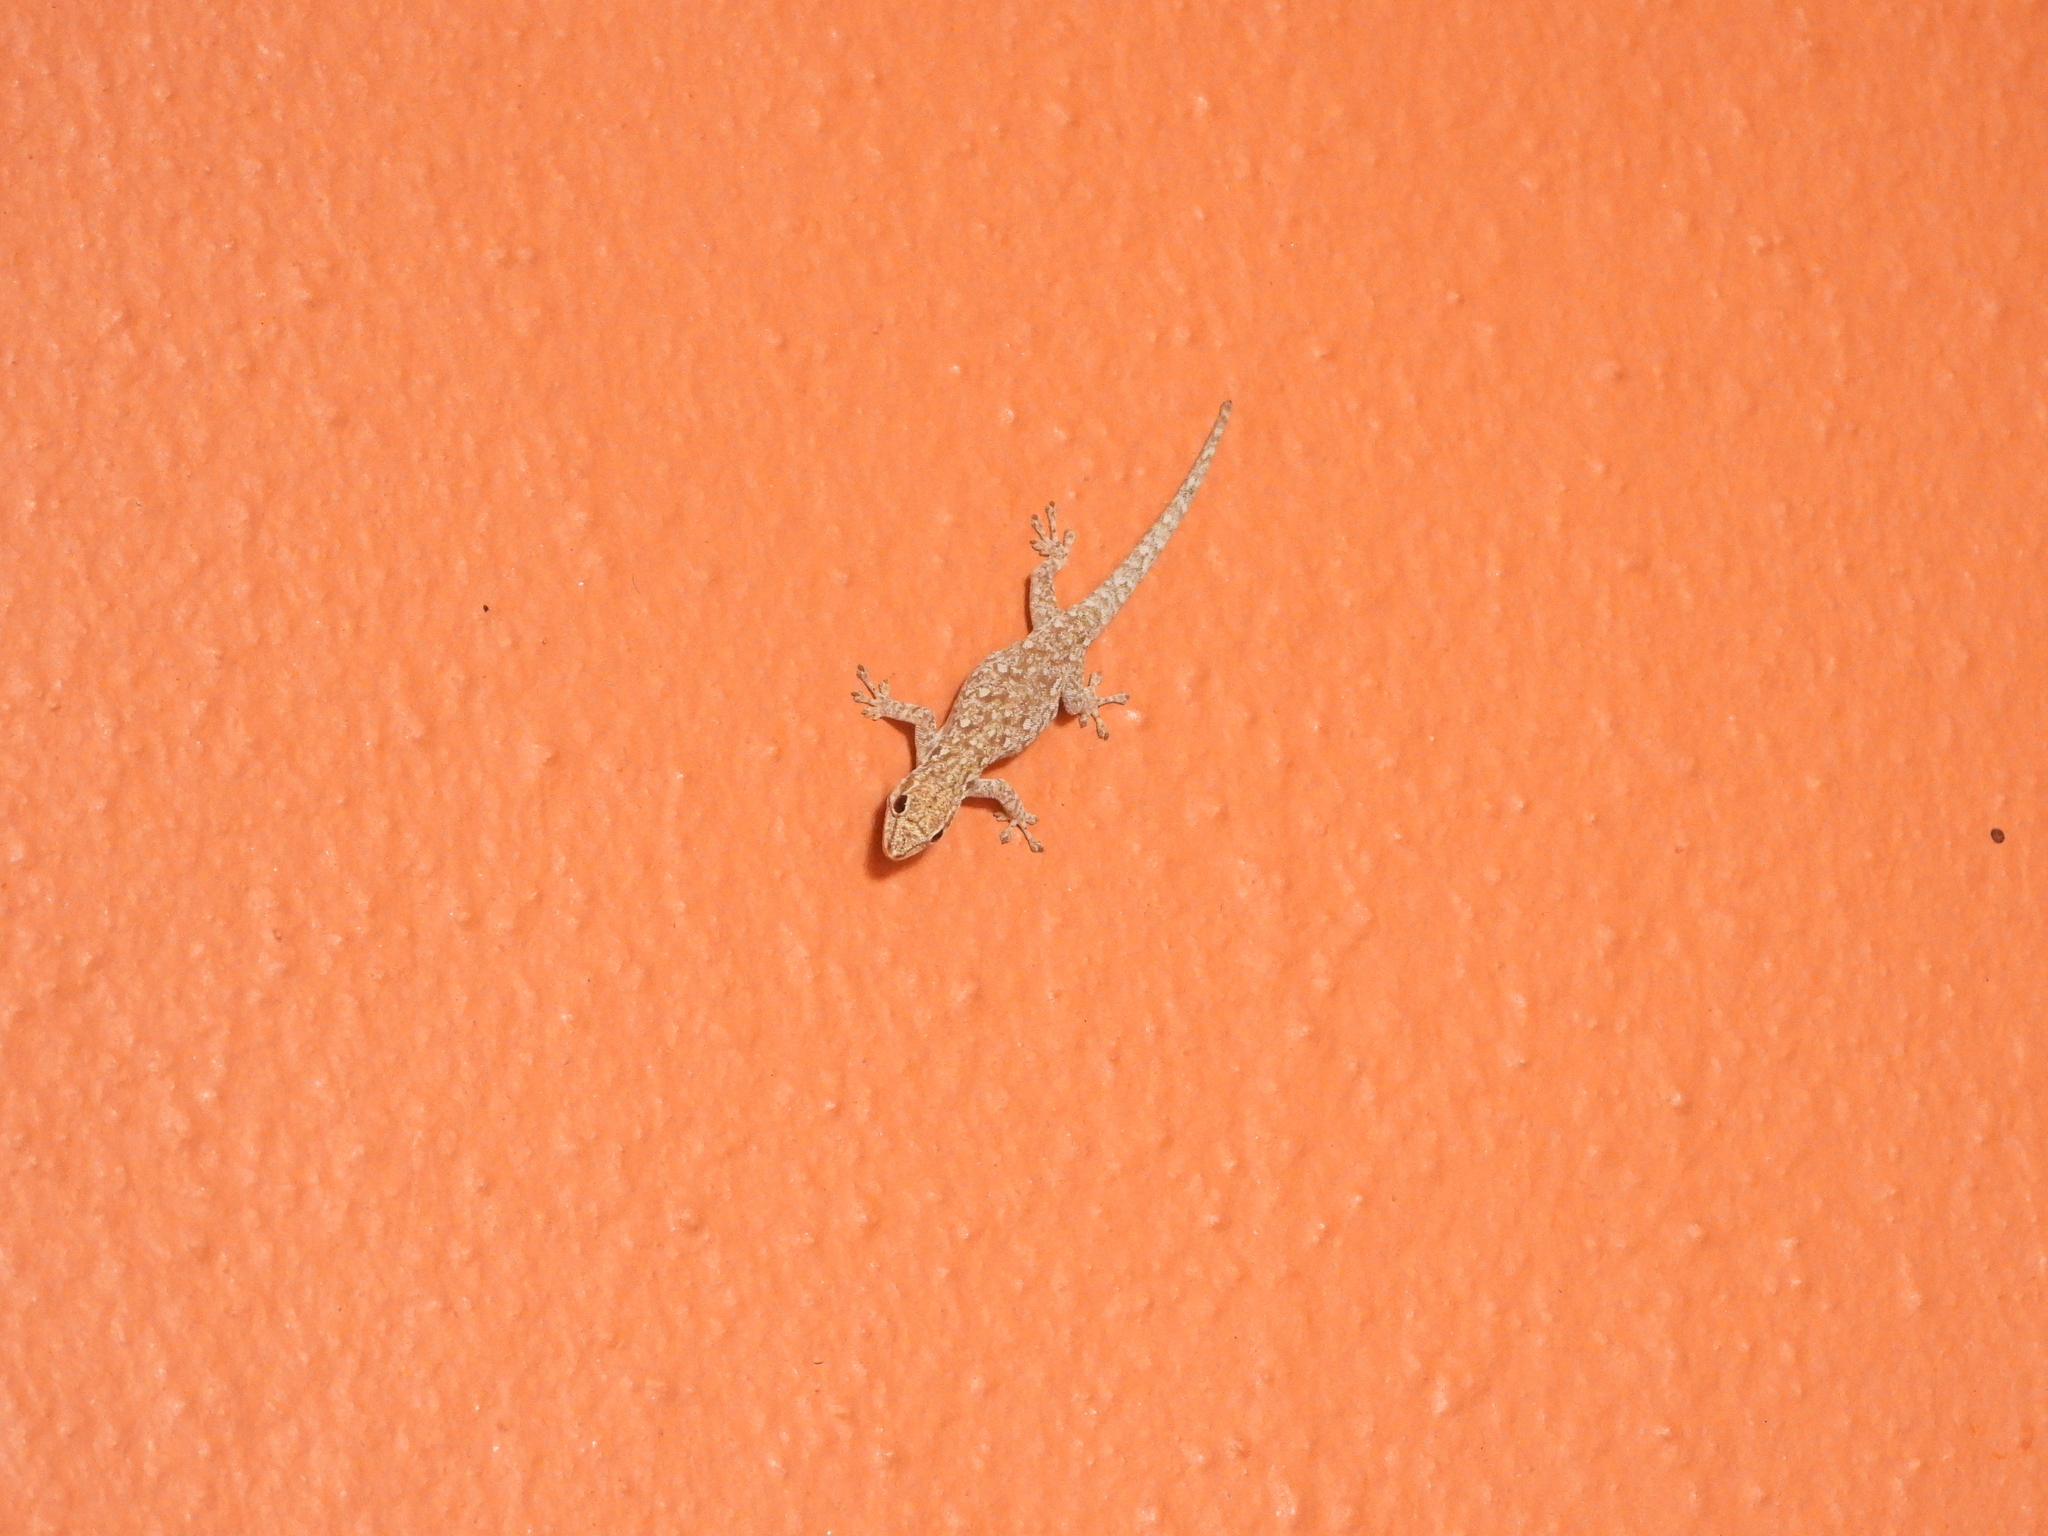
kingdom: Animalia
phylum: Chordata
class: Squamata
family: Gekkonidae
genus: Lygodactylus
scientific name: Lygodactylus chobiensis
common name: Okavango dwarf gecko
